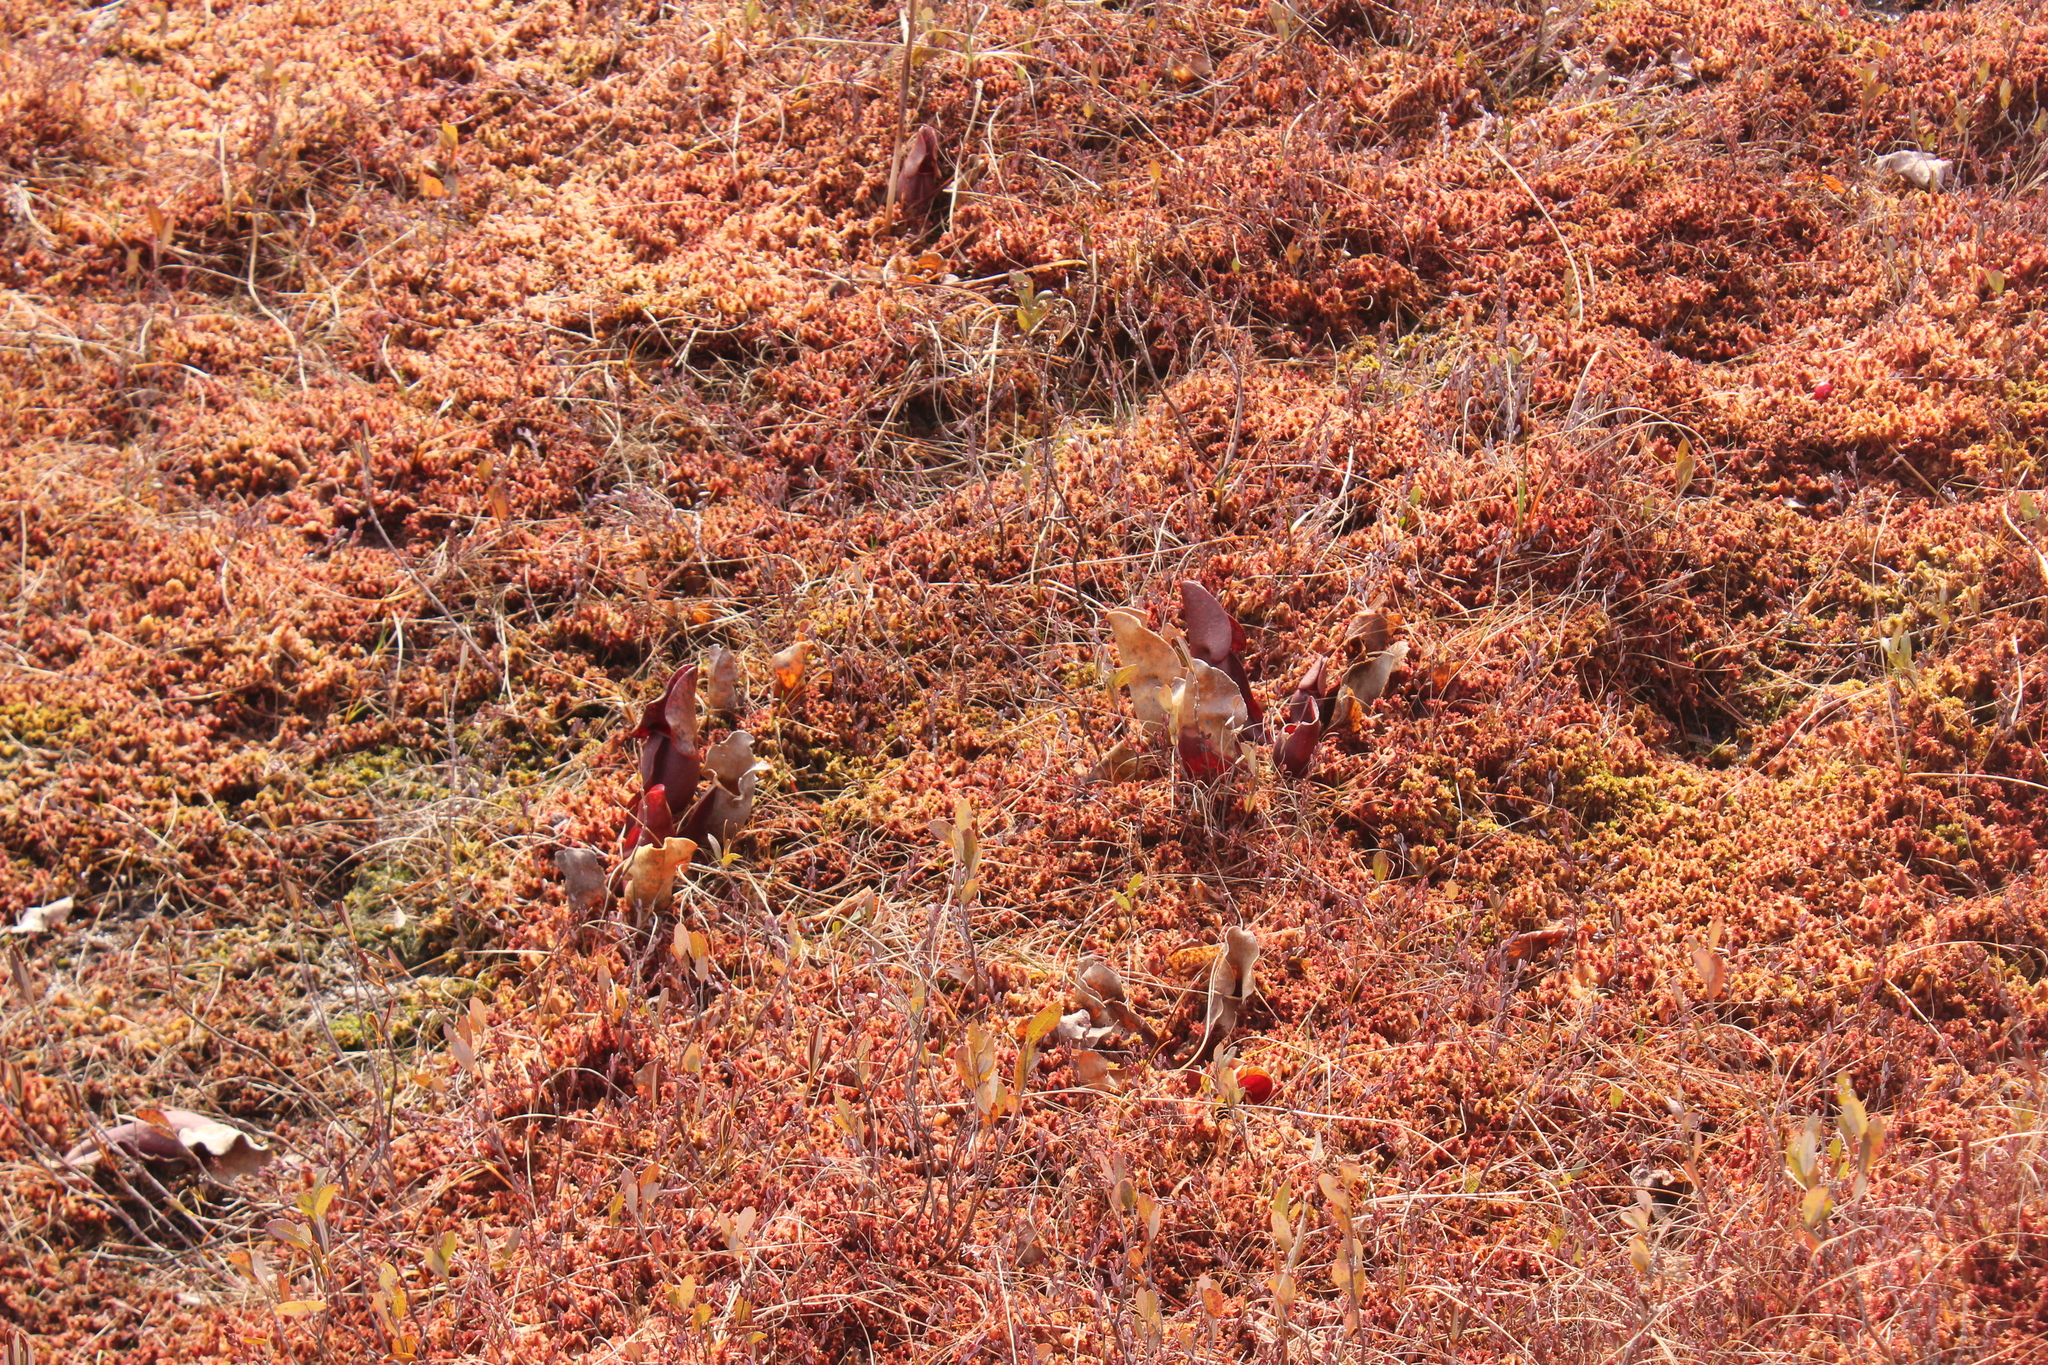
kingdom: Plantae
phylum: Tracheophyta
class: Magnoliopsida
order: Ericales
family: Sarraceniaceae
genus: Sarracenia
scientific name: Sarracenia purpurea
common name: Pitcherplant
